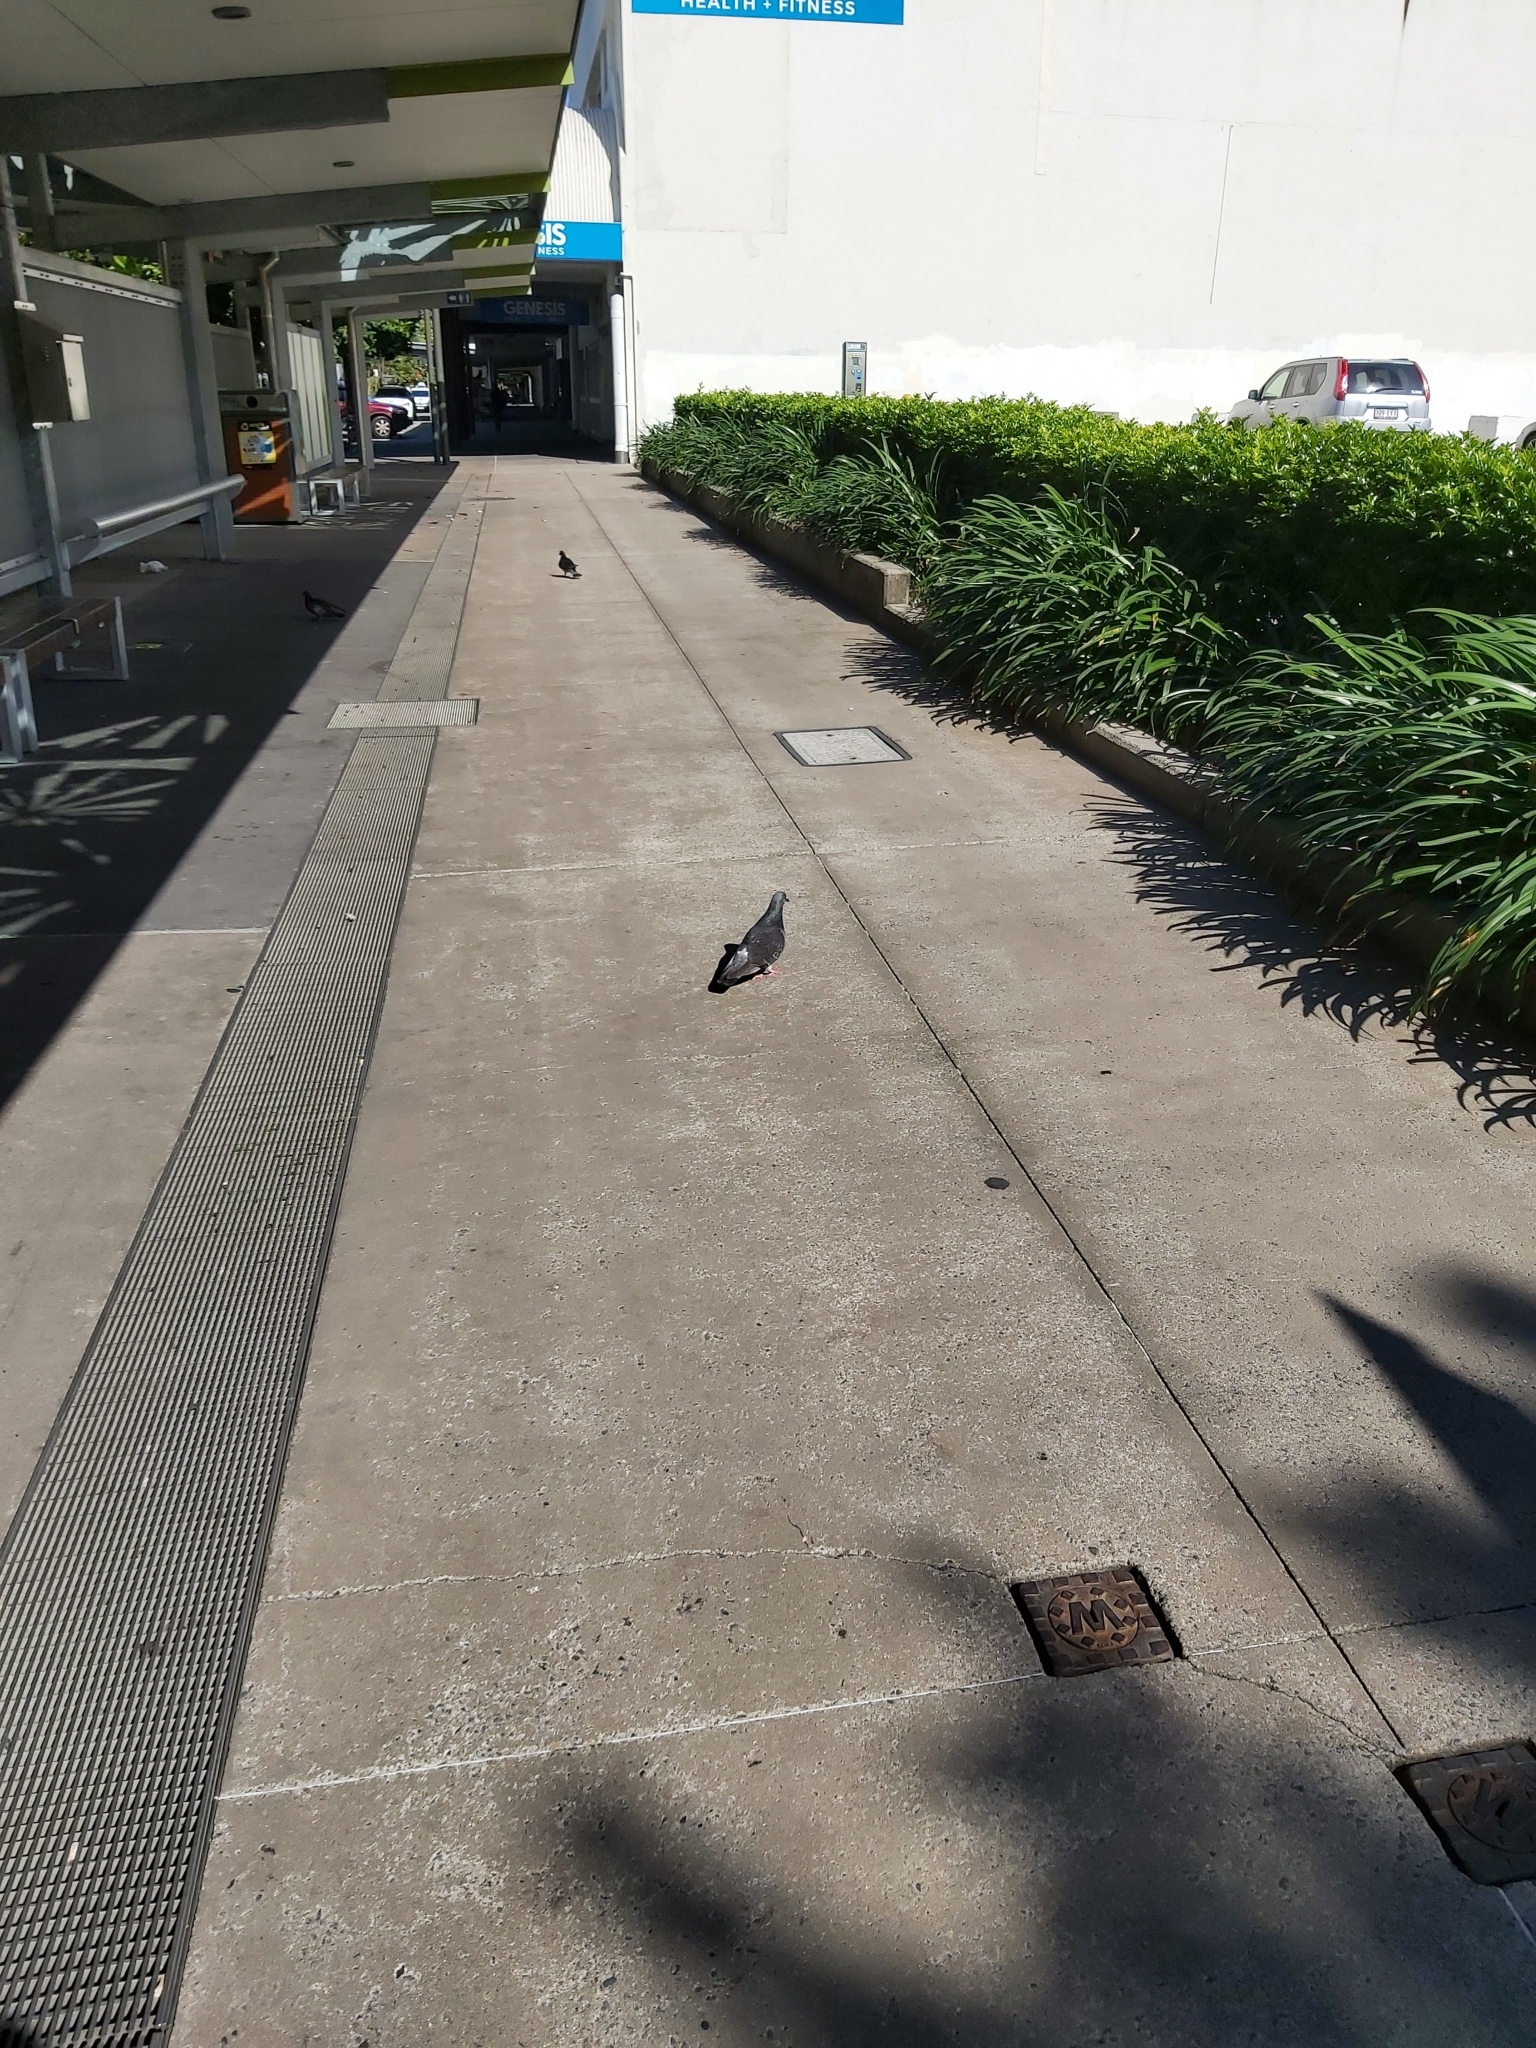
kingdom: Animalia
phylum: Chordata
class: Aves
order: Columbiformes
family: Columbidae
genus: Columba
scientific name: Columba livia
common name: Rock pigeon
